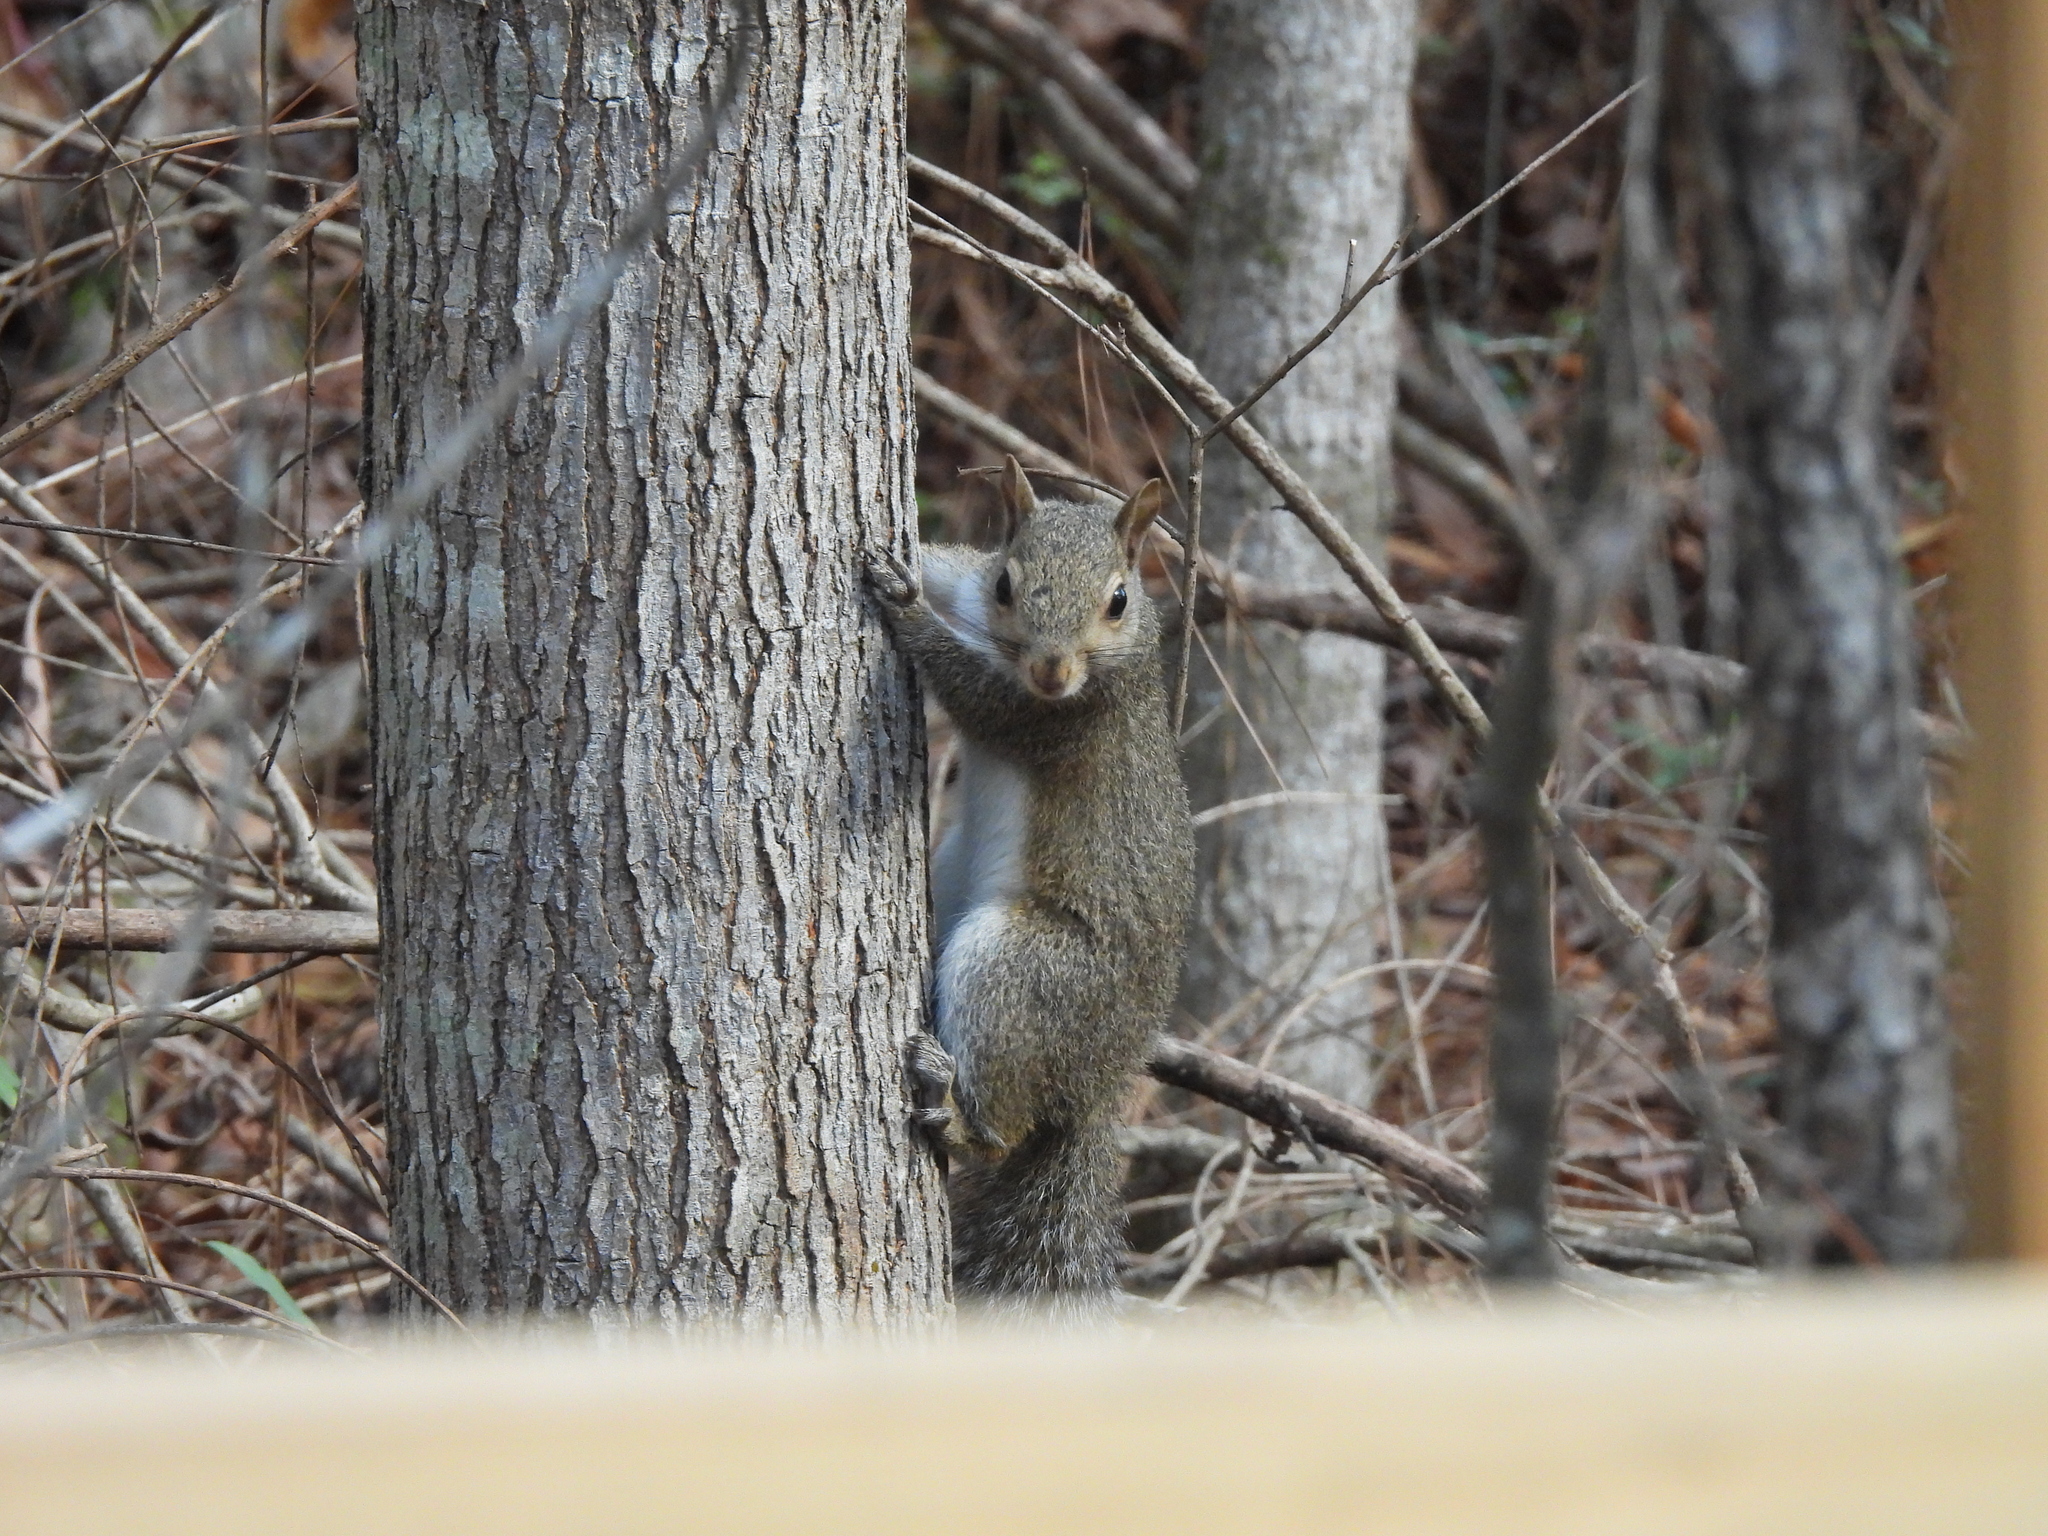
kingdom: Animalia
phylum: Chordata
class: Mammalia
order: Rodentia
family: Sciuridae
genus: Sciurus
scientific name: Sciurus carolinensis
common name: Eastern gray squirrel
